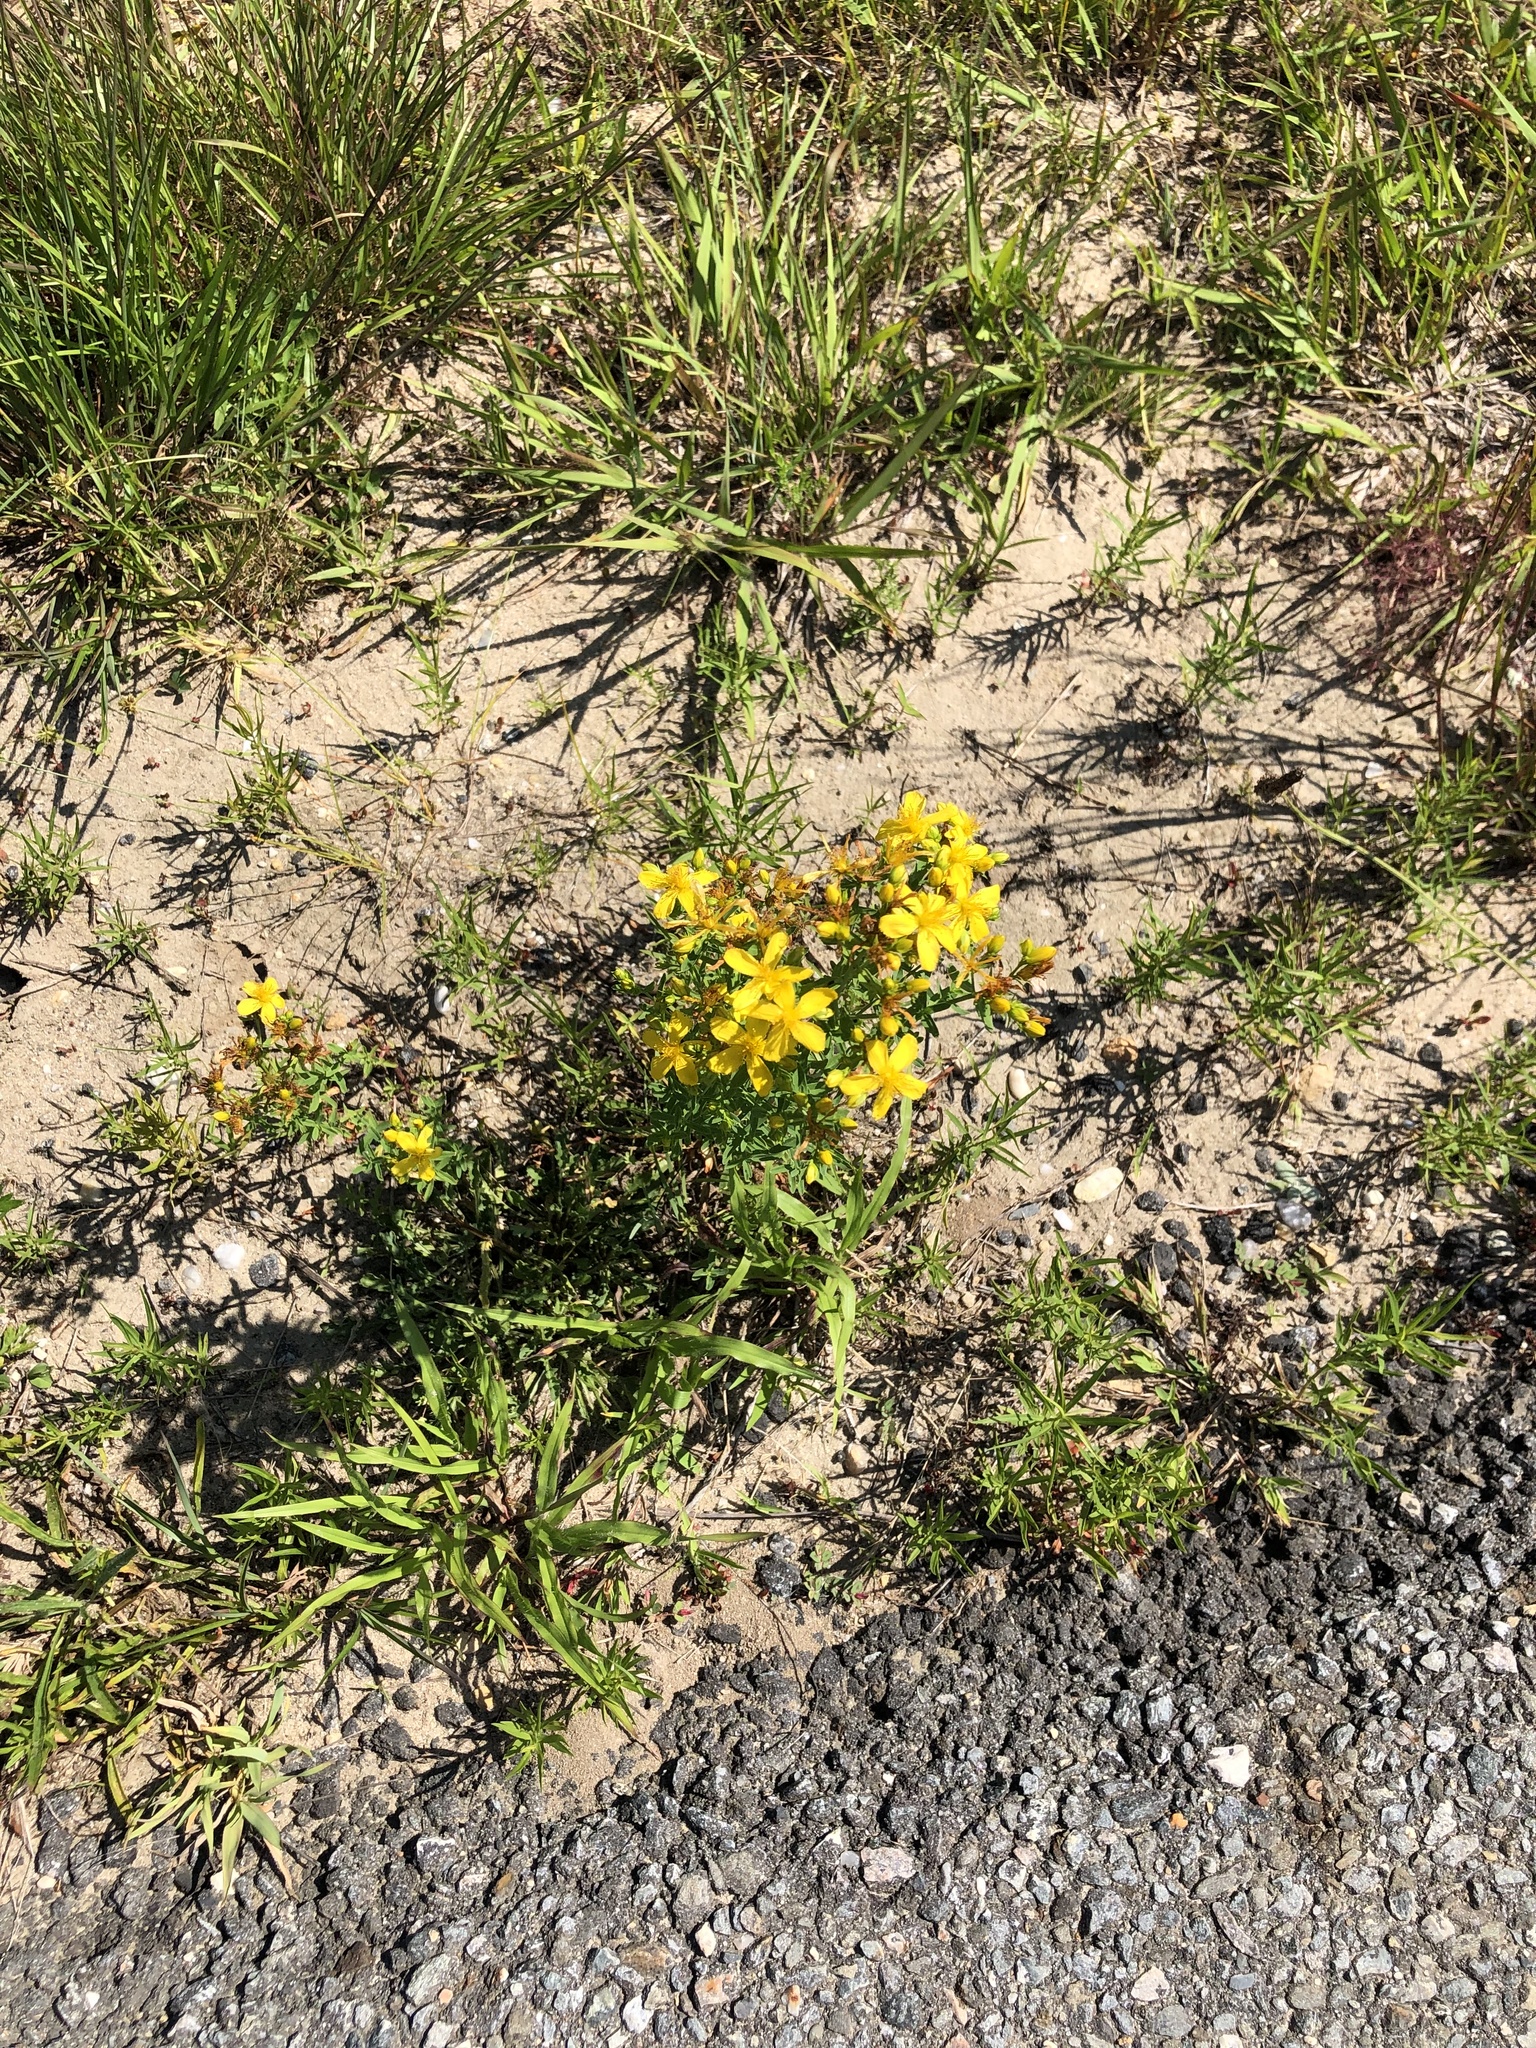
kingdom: Plantae
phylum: Tracheophyta
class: Magnoliopsida
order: Malpighiales
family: Hypericaceae
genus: Hypericum
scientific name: Hypericum perforatum
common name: Common st. johnswort
